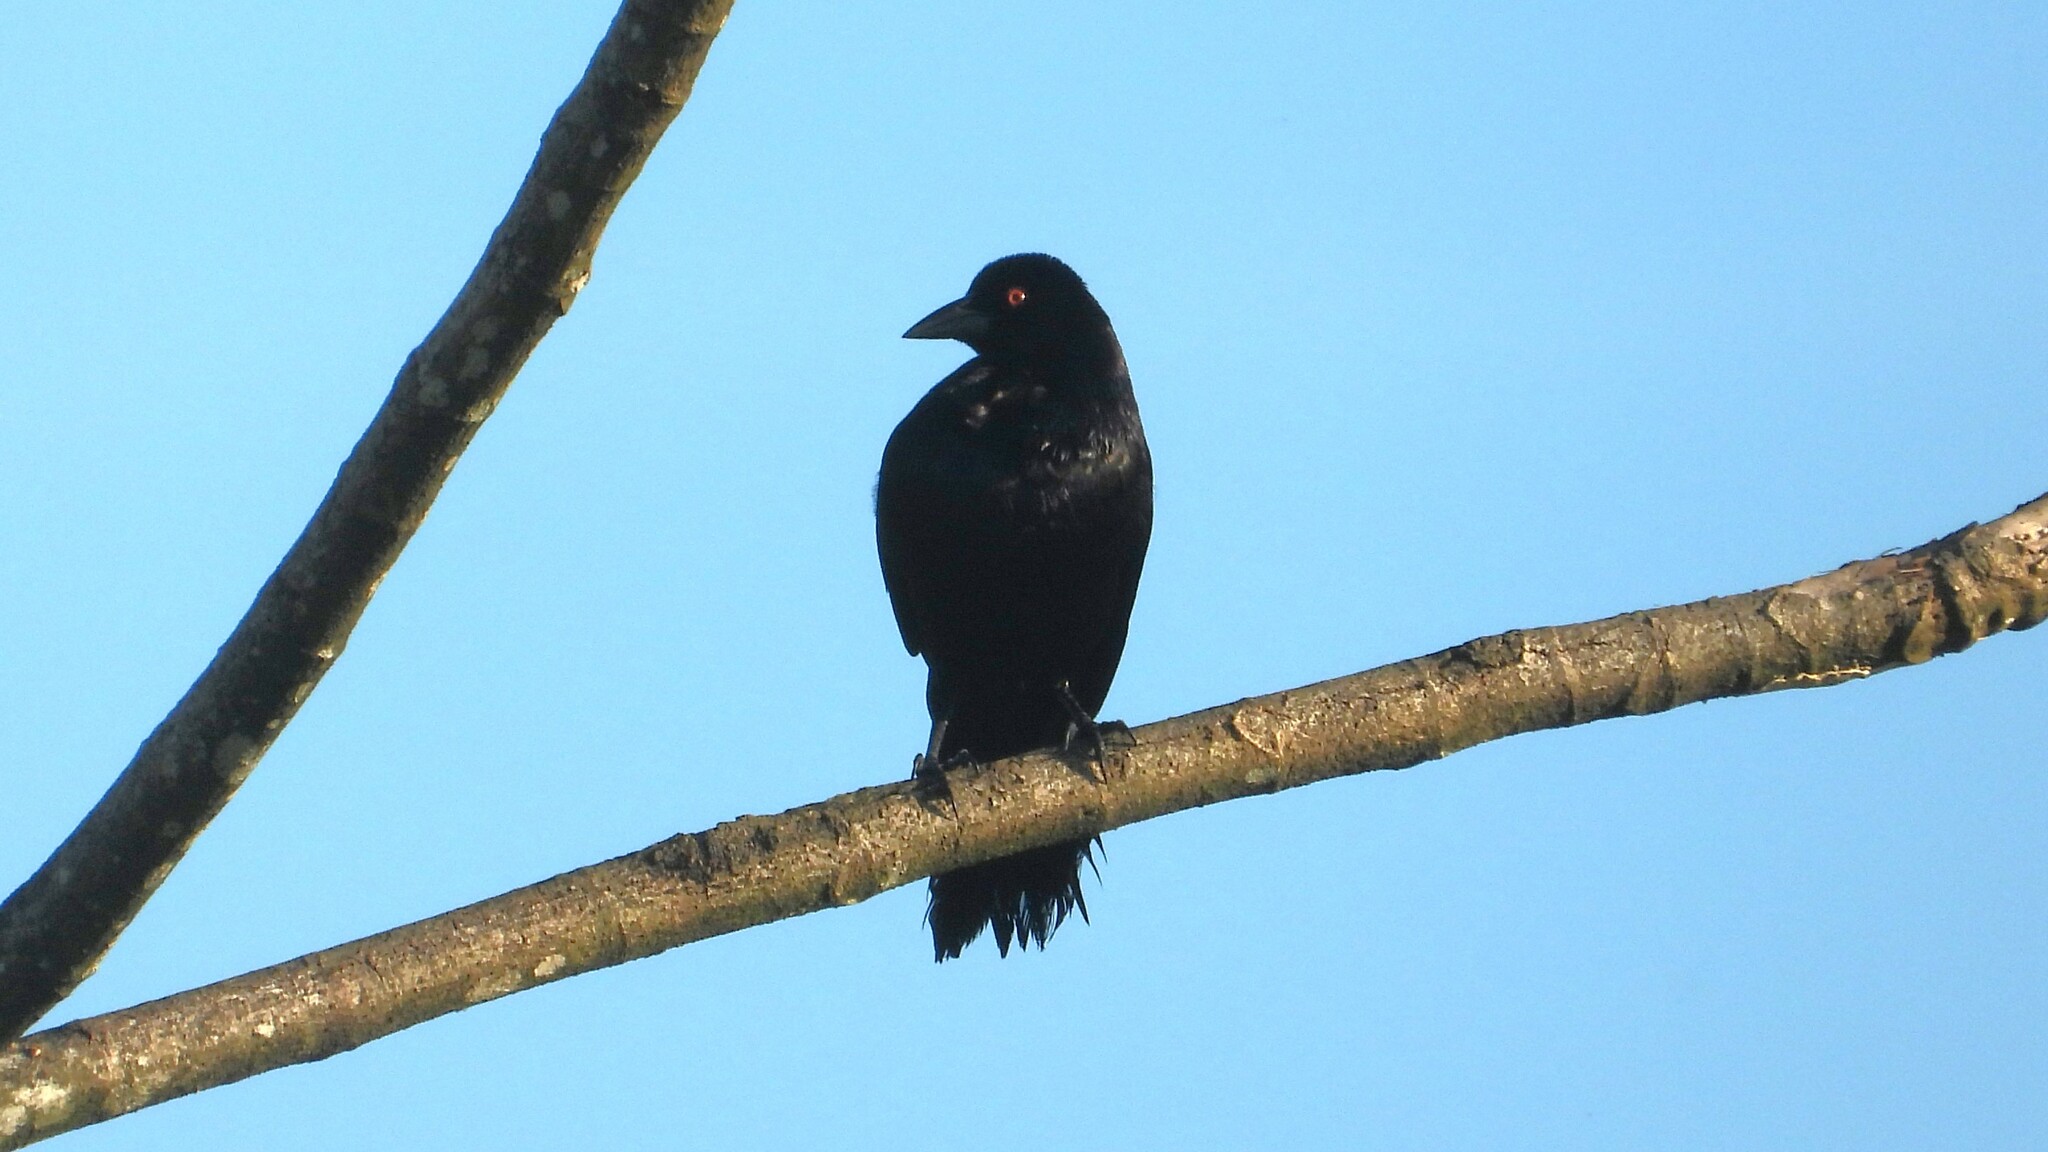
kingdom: Animalia
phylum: Chordata
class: Aves
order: Passeriformes
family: Icteridae
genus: Molothrus
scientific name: Molothrus oryzivorus
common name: Giant cowbird
